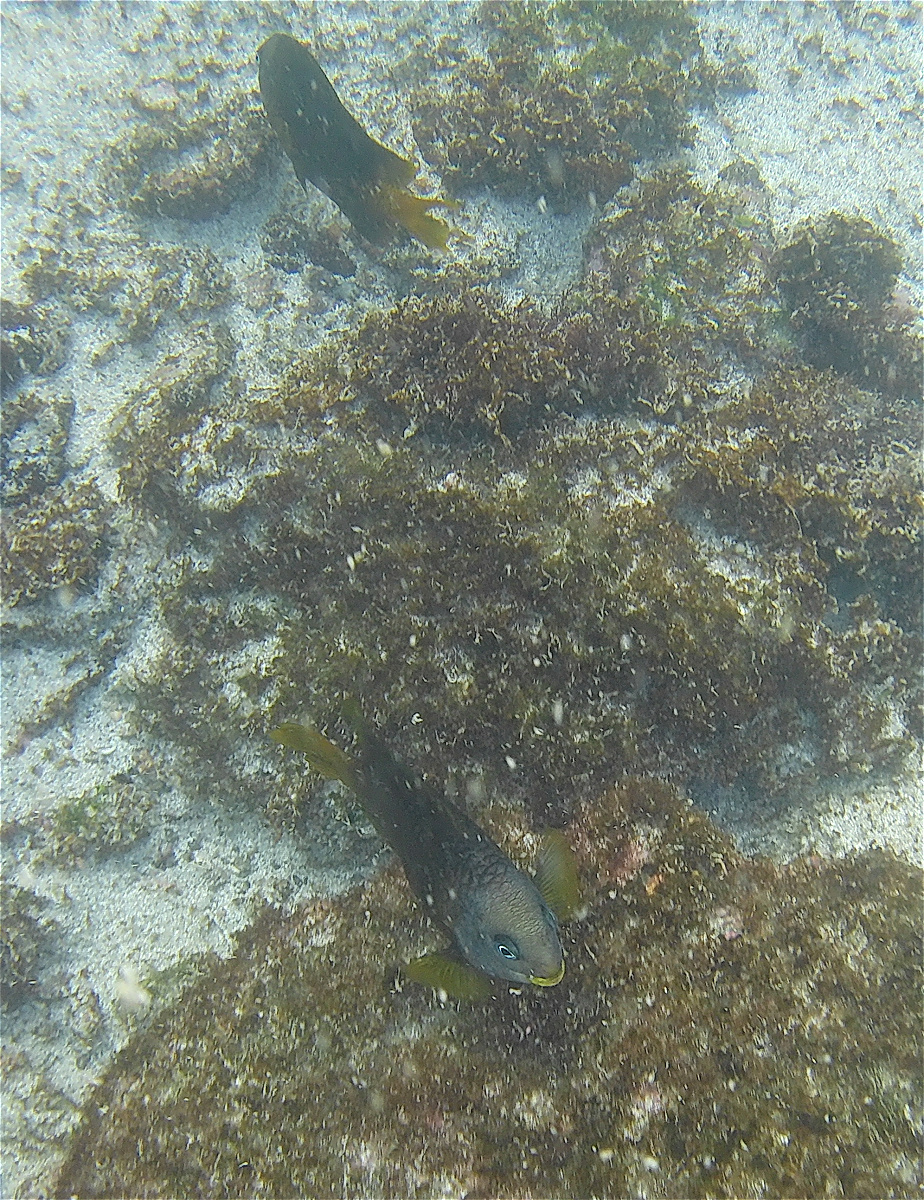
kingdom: Animalia
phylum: Chordata
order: Perciformes
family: Pomacentridae
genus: Stegastes
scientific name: Stegastes arcifrons
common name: Galapagos gregory
